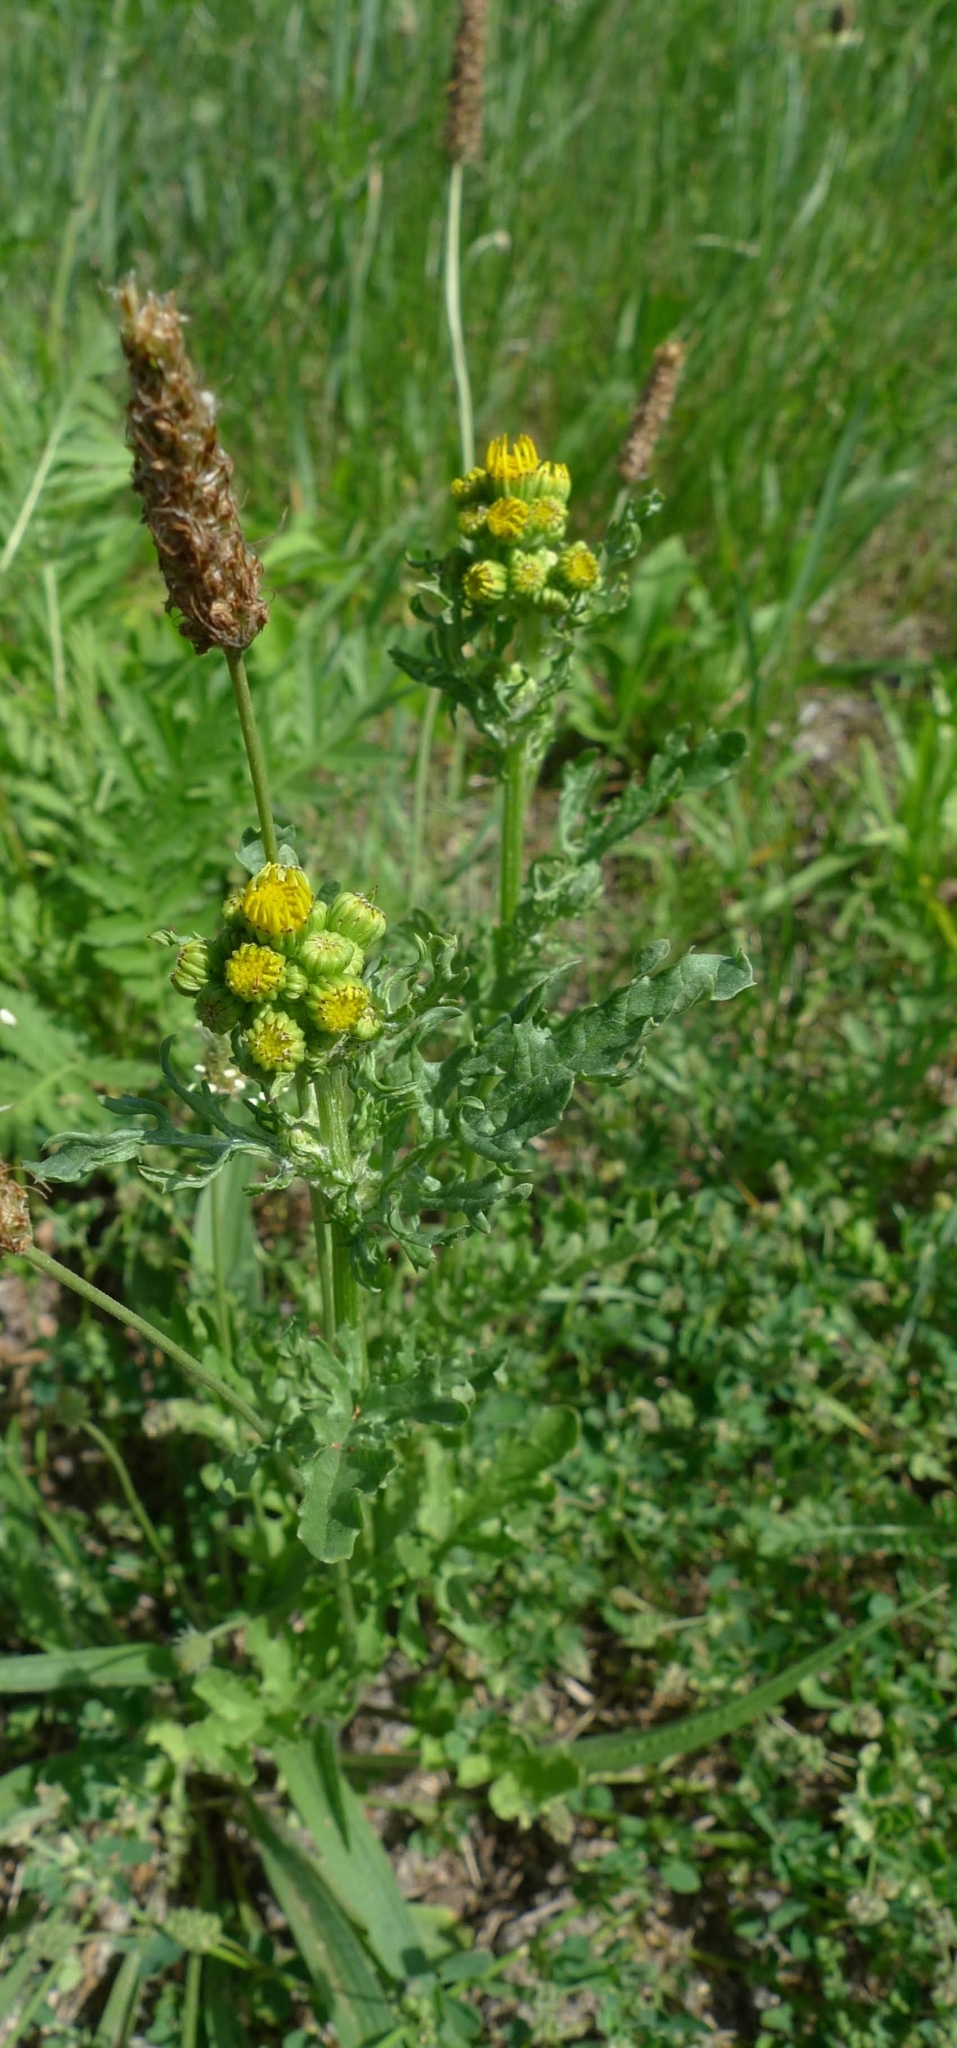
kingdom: Plantae
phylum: Tracheophyta
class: Magnoliopsida
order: Asterales
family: Asteraceae
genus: Jacobaea
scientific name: Jacobaea vulgaris
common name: Stinking willie
